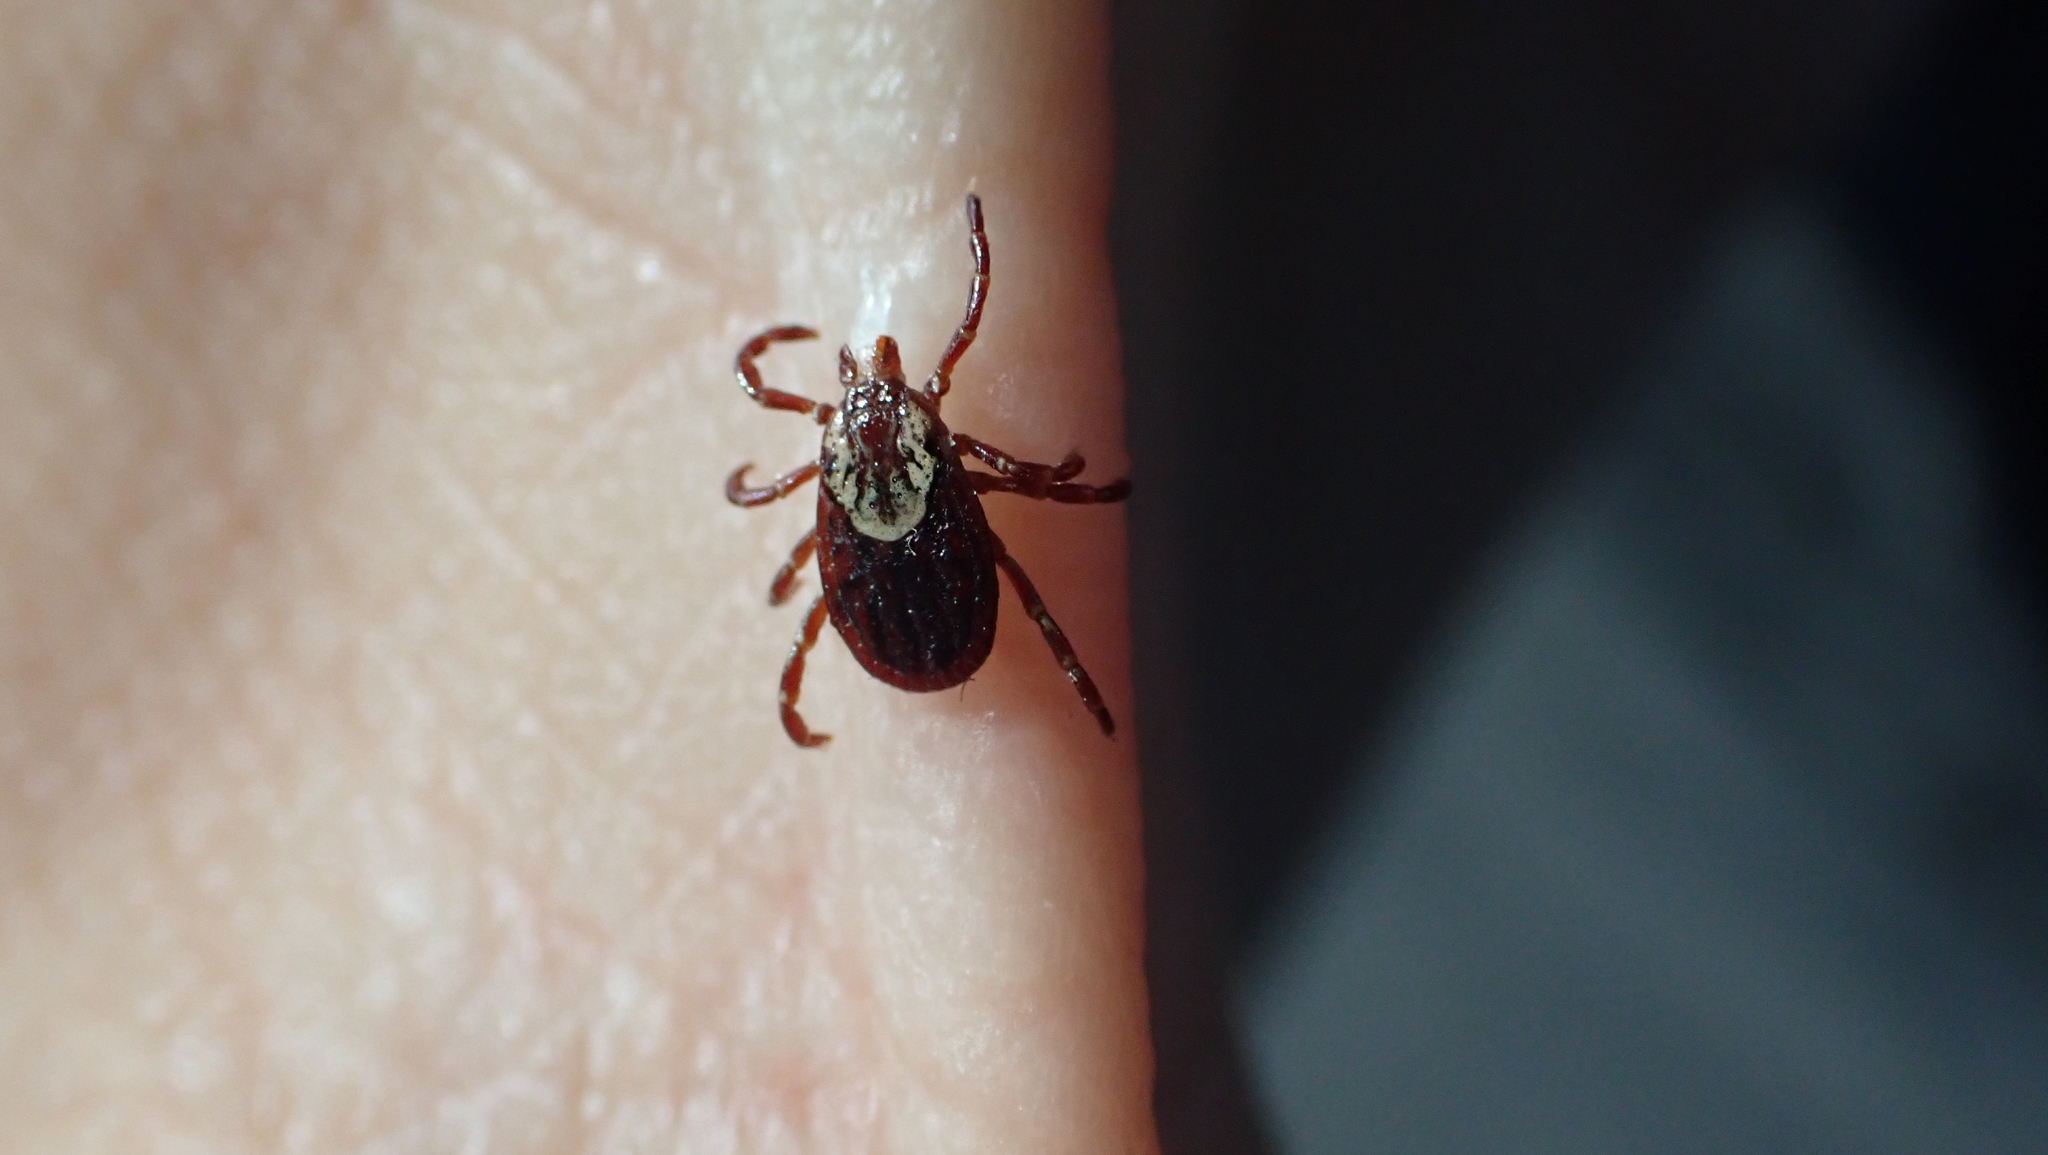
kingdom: Animalia
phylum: Arthropoda
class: Arachnida
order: Ixodida
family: Ixodidae
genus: Dermacentor
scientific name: Dermacentor variabilis
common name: American dog tick
